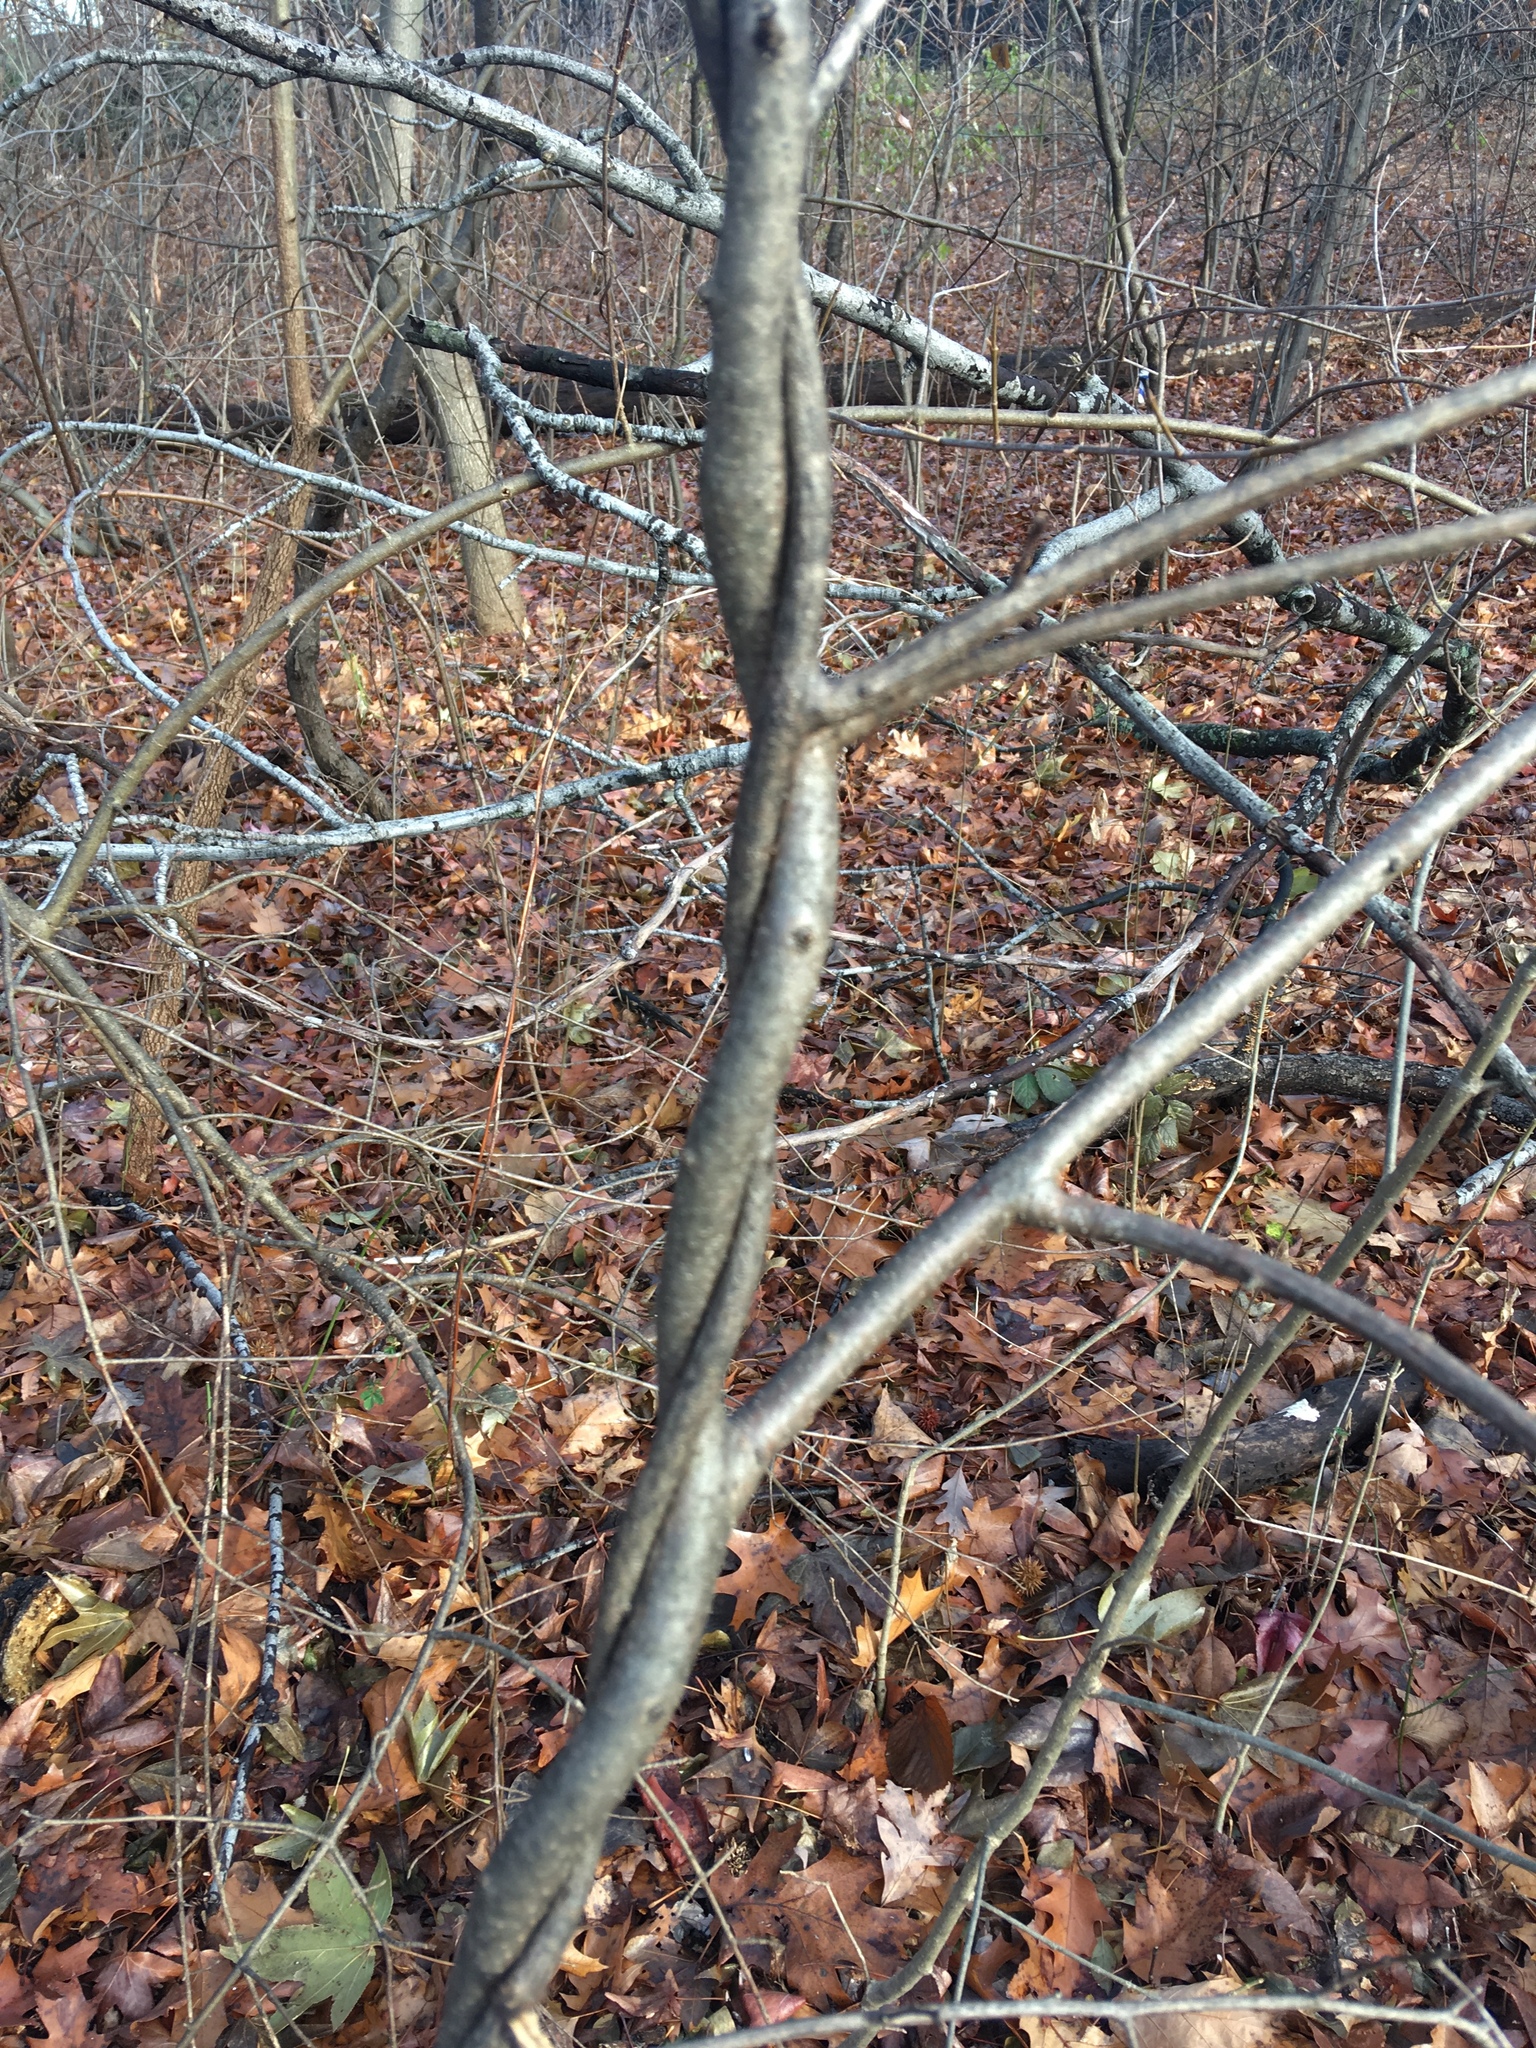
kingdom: Plantae
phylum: Tracheophyta
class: Magnoliopsida
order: Celastrales
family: Celastraceae
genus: Celastrus
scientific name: Celastrus orbiculatus
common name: Oriental bittersweet
